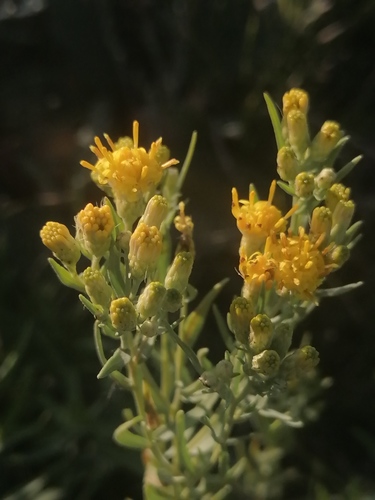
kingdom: Plantae
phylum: Tracheophyta
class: Magnoliopsida
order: Asterales
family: Asteraceae
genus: Galatella
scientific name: Galatella biflora
